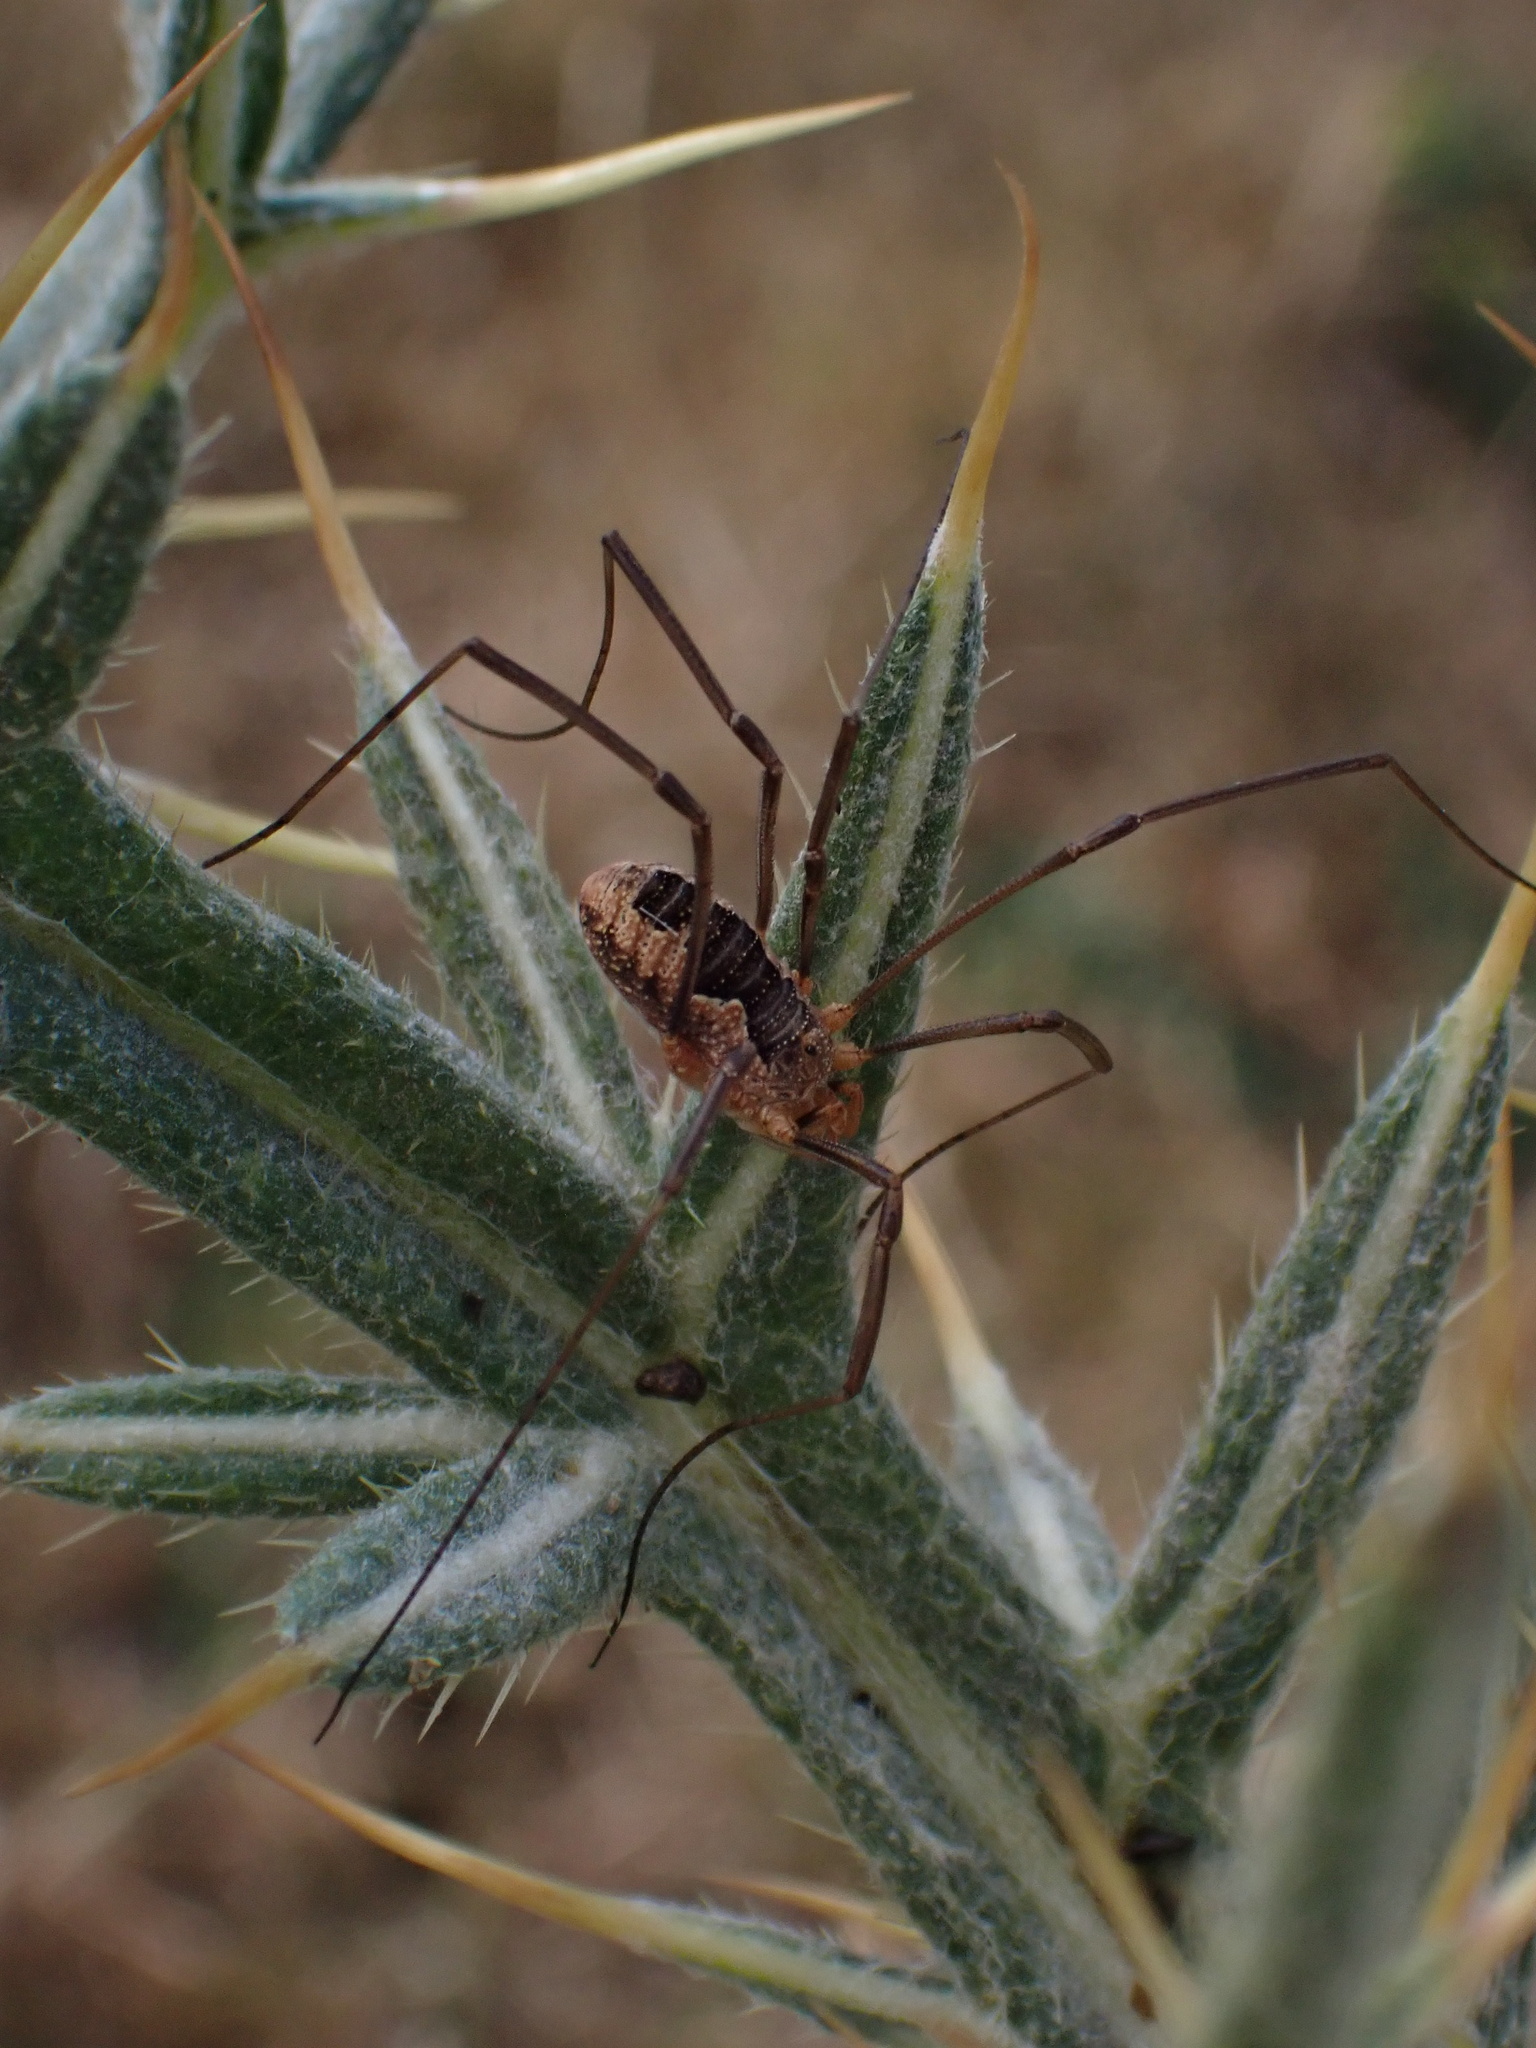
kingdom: Animalia
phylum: Arthropoda
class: Arachnida
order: Opiliones
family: Phalangiidae
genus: Phalangium
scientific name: Phalangium opilio
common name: Daddy longleg
